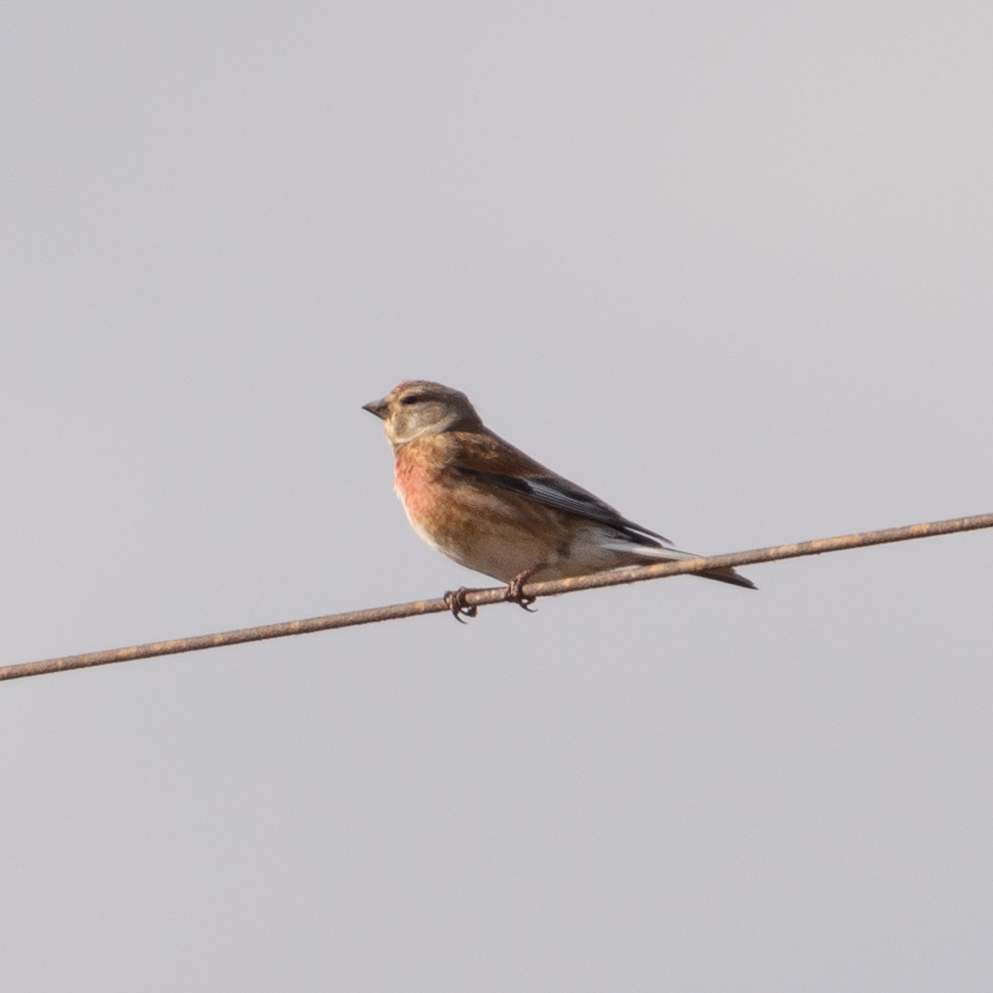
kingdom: Animalia
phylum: Chordata
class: Aves
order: Passeriformes
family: Fringillidae
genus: Linaria
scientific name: Linaria cannabina
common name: Common linnet
